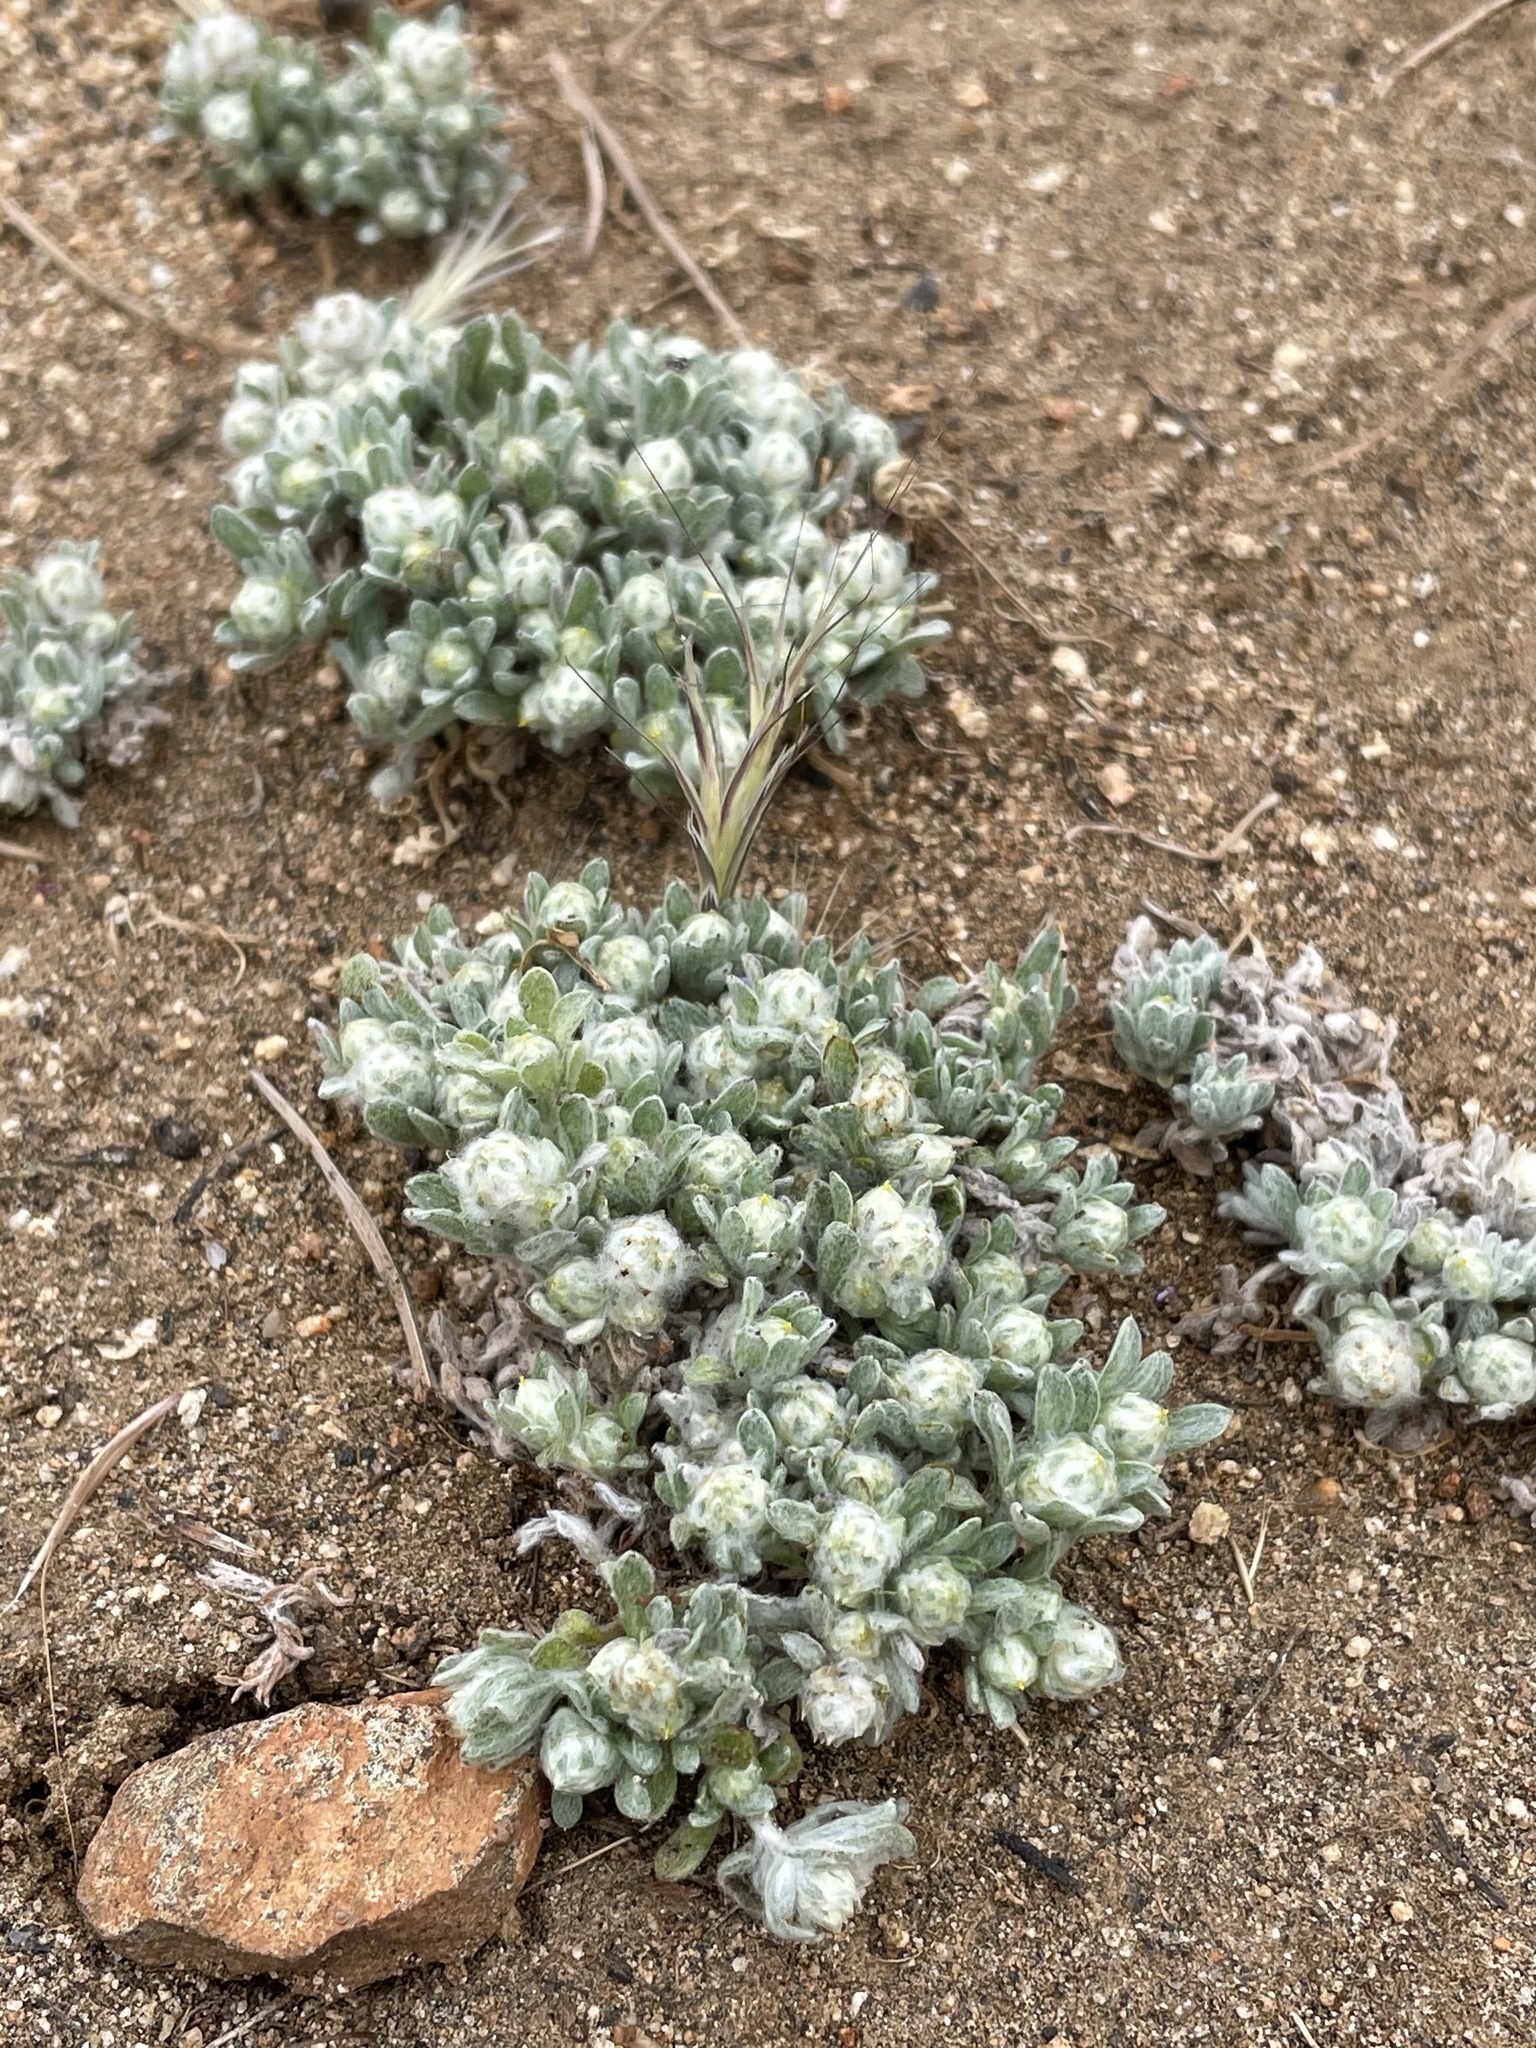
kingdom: Plantae
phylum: Tracheophyta
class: Magnoliopsida
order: Asterales
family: Asteraceae
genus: Stylocline
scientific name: Stylocline gnaphaloides
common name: Everlasting nest-straw
